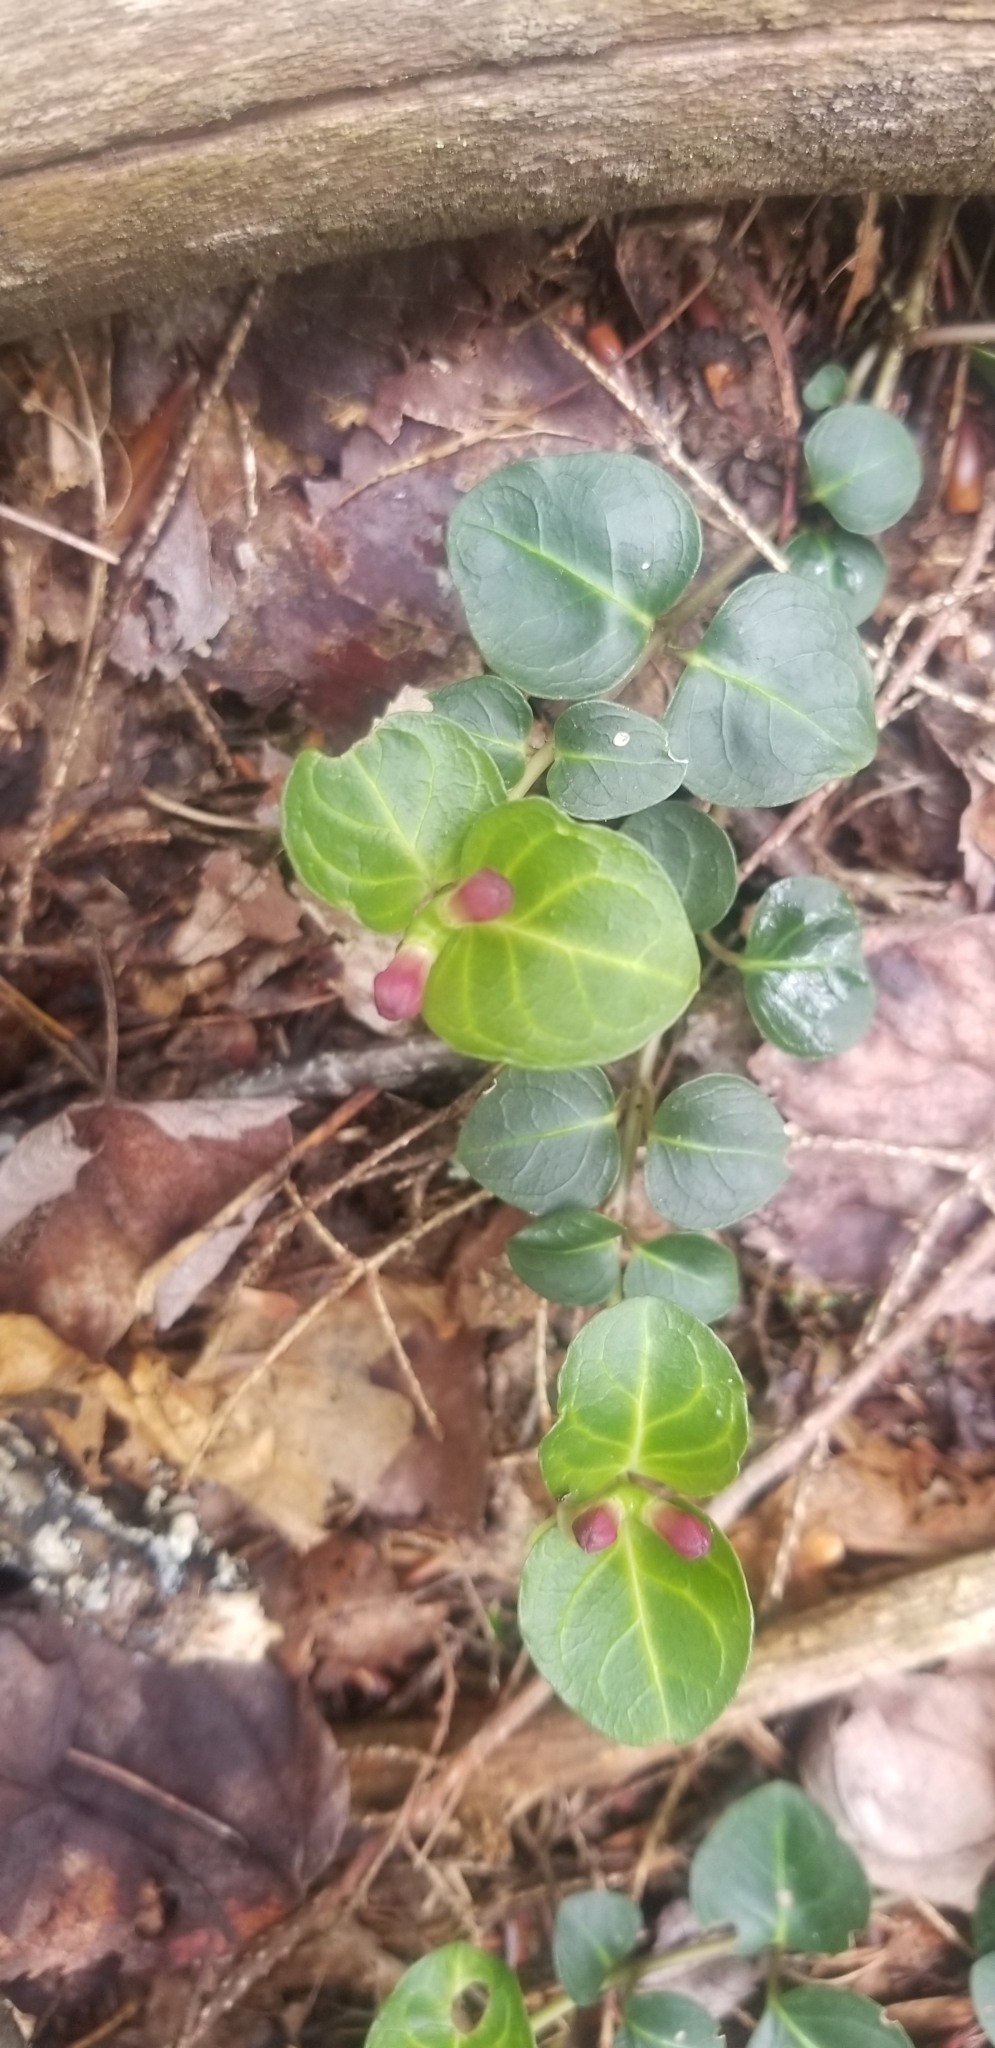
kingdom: Plantae
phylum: Tracheophyta
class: Magnoliopsida
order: Gentianales
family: Rubiaceae
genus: Mitchella
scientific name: Mitchella repens
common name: Partridge-berry
